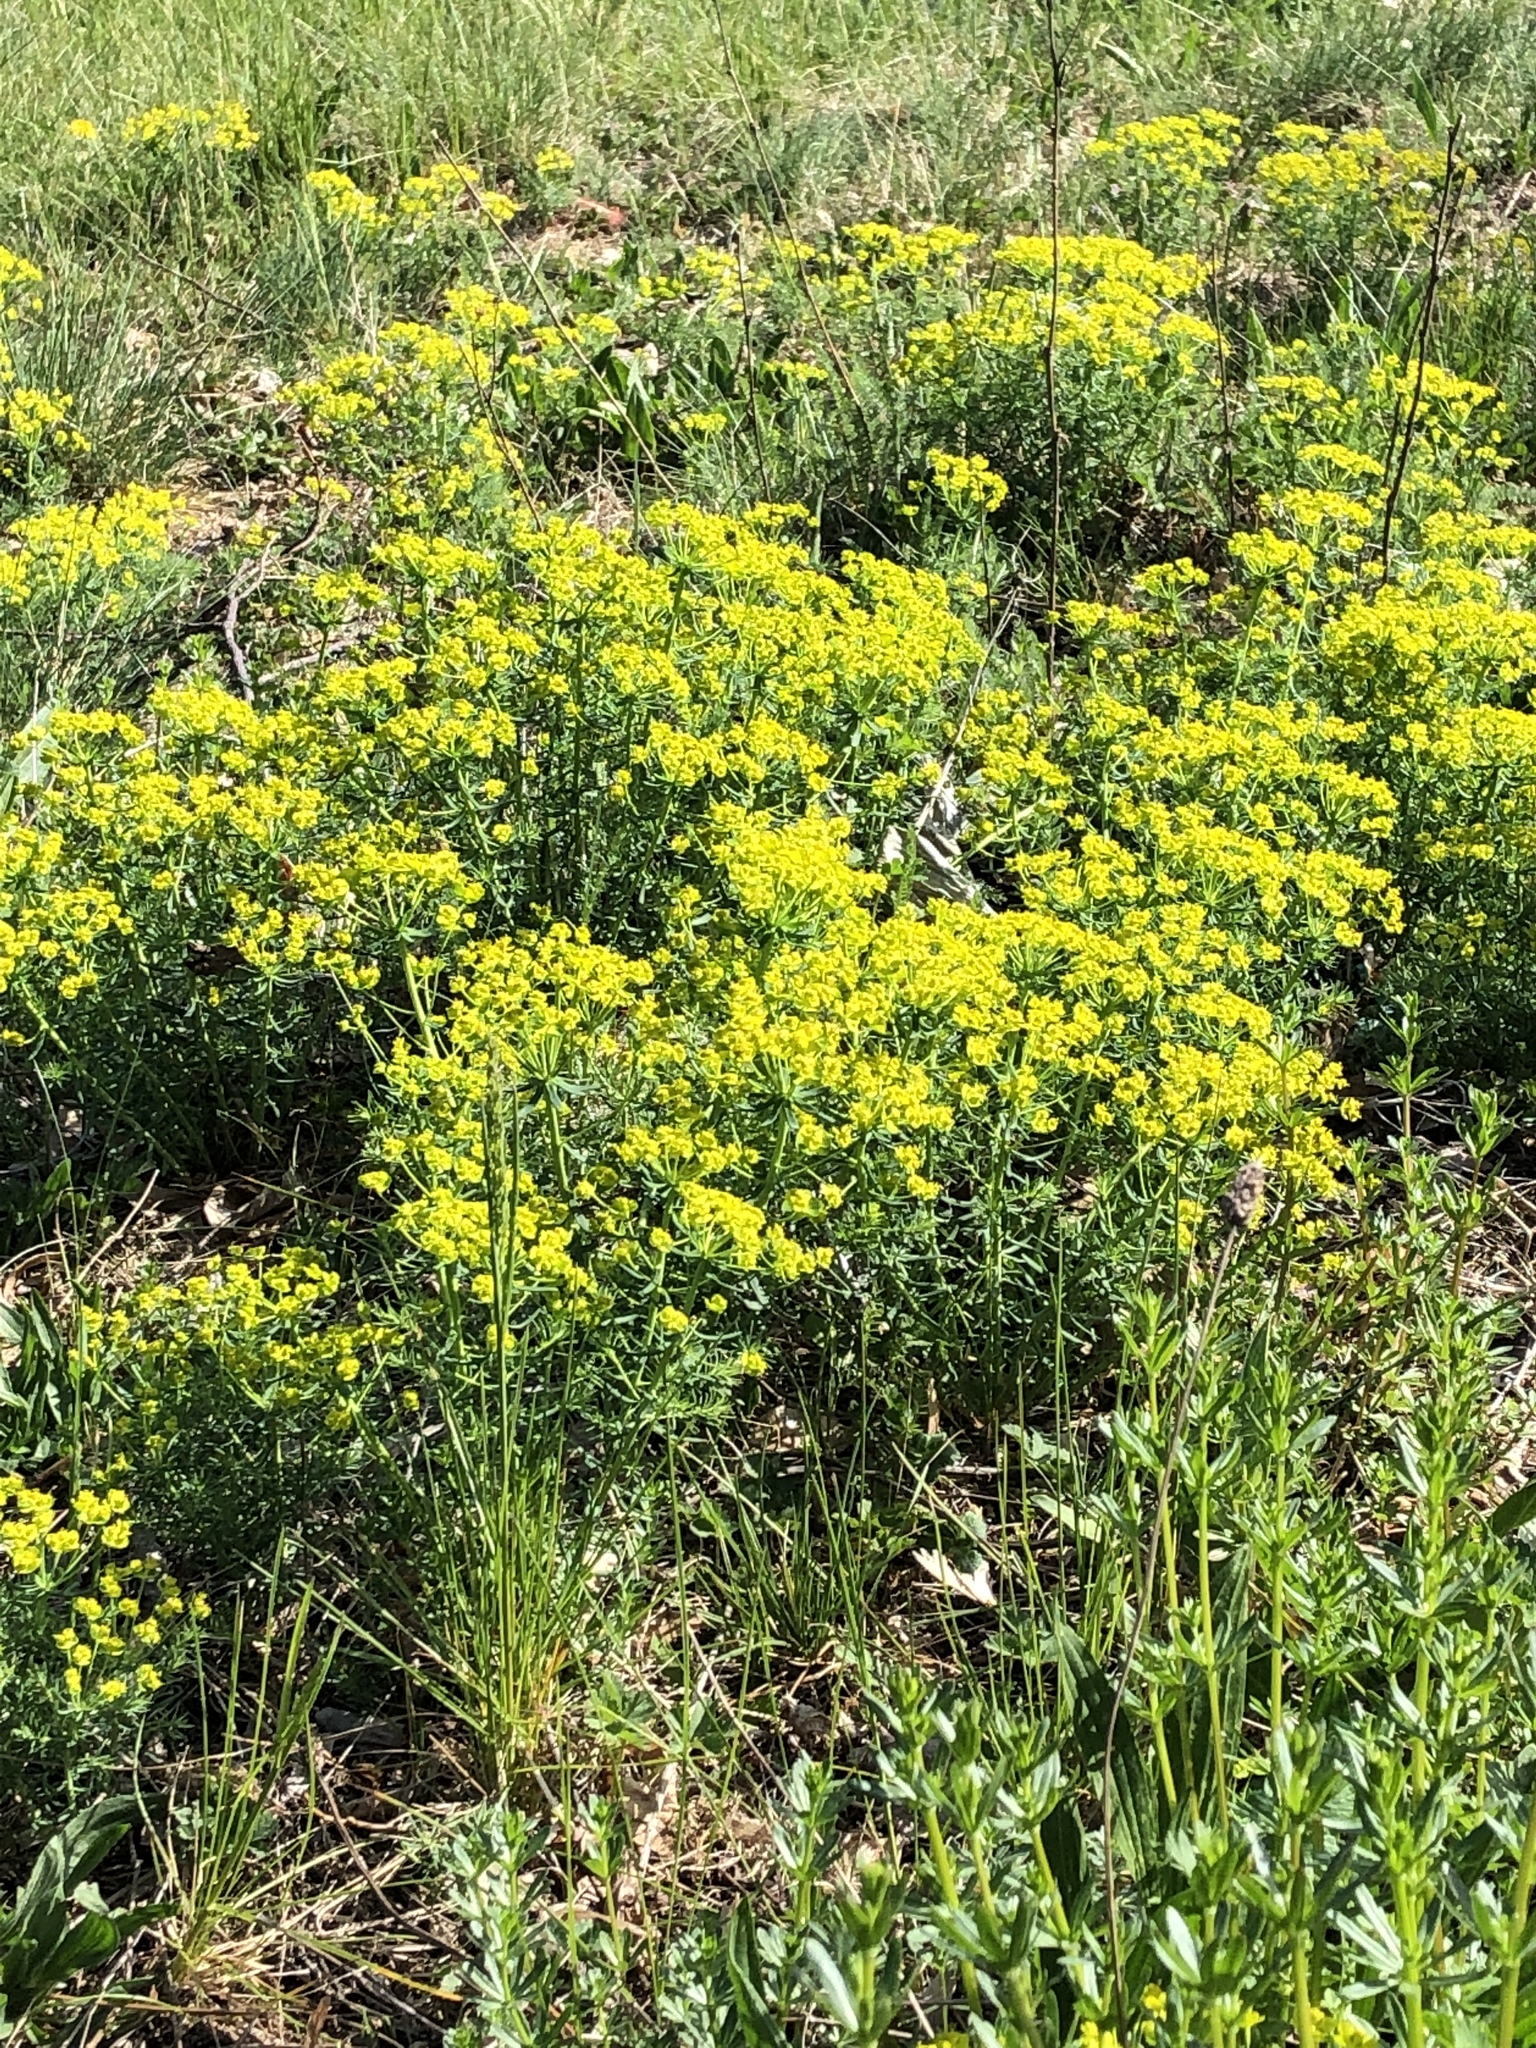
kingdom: Plantae
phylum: Tracheophyta
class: Magnoliopsida
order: Malpighiales
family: Euphorbiaceae
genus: Euphorbia
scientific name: Euphorbia cyparissias
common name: Cypress spurge
